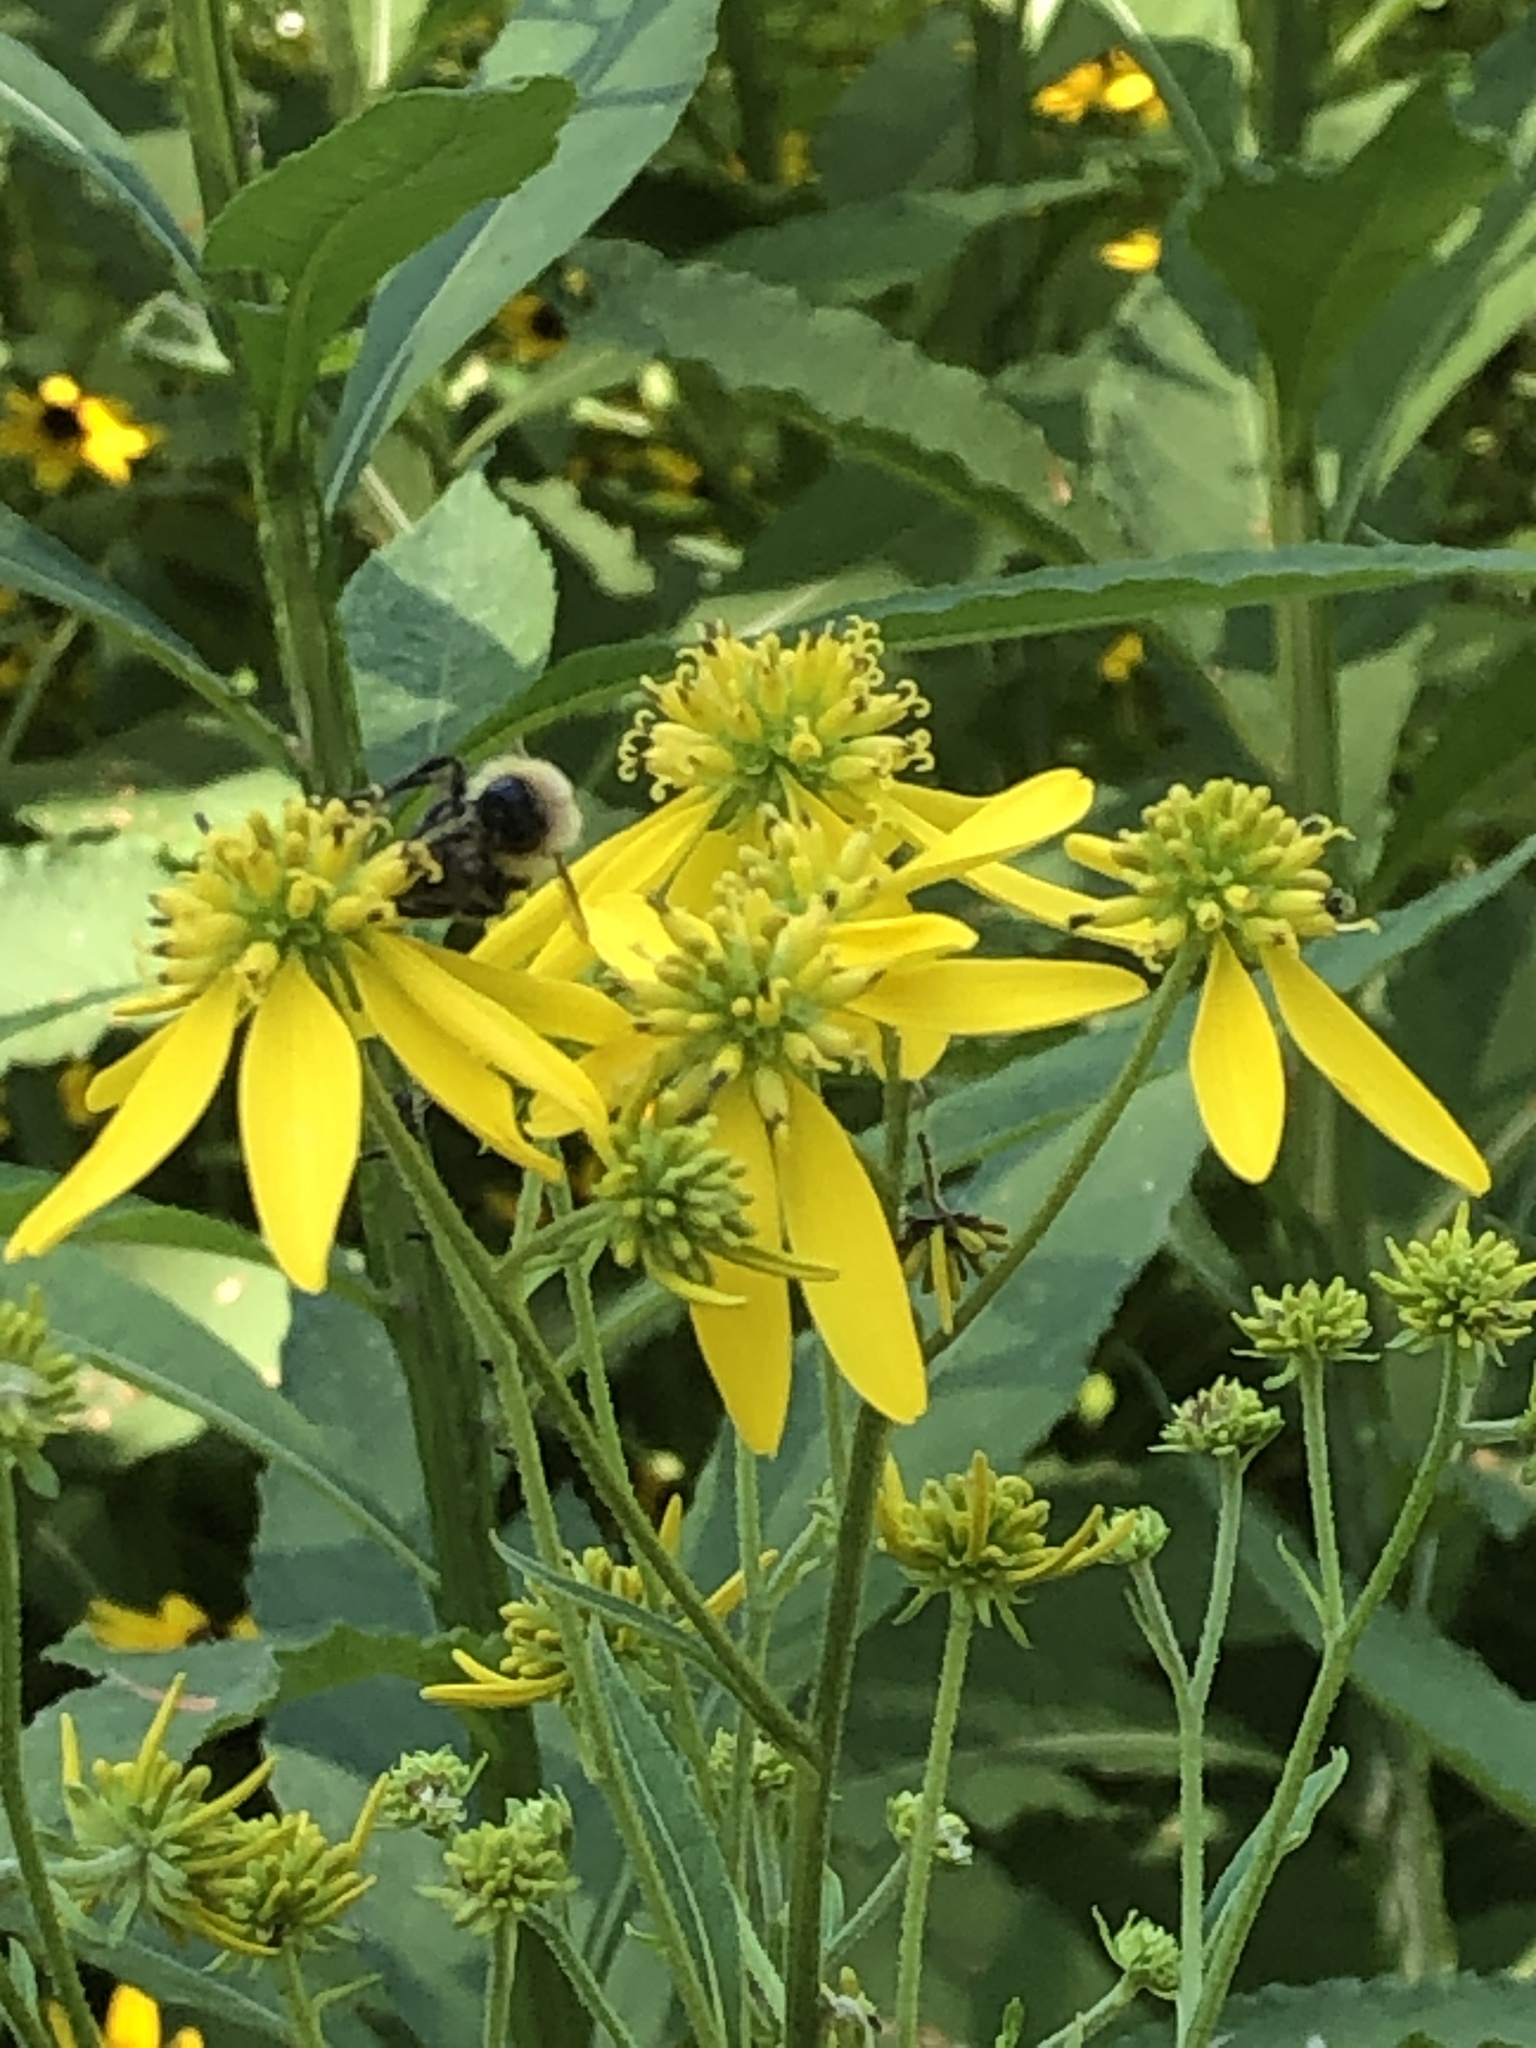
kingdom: Plantae
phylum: Tracheophyta
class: Magnoliopsida
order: Asterales
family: Asteraceae
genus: Verbesina
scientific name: Verbesina alternifolia
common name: Wingstem
